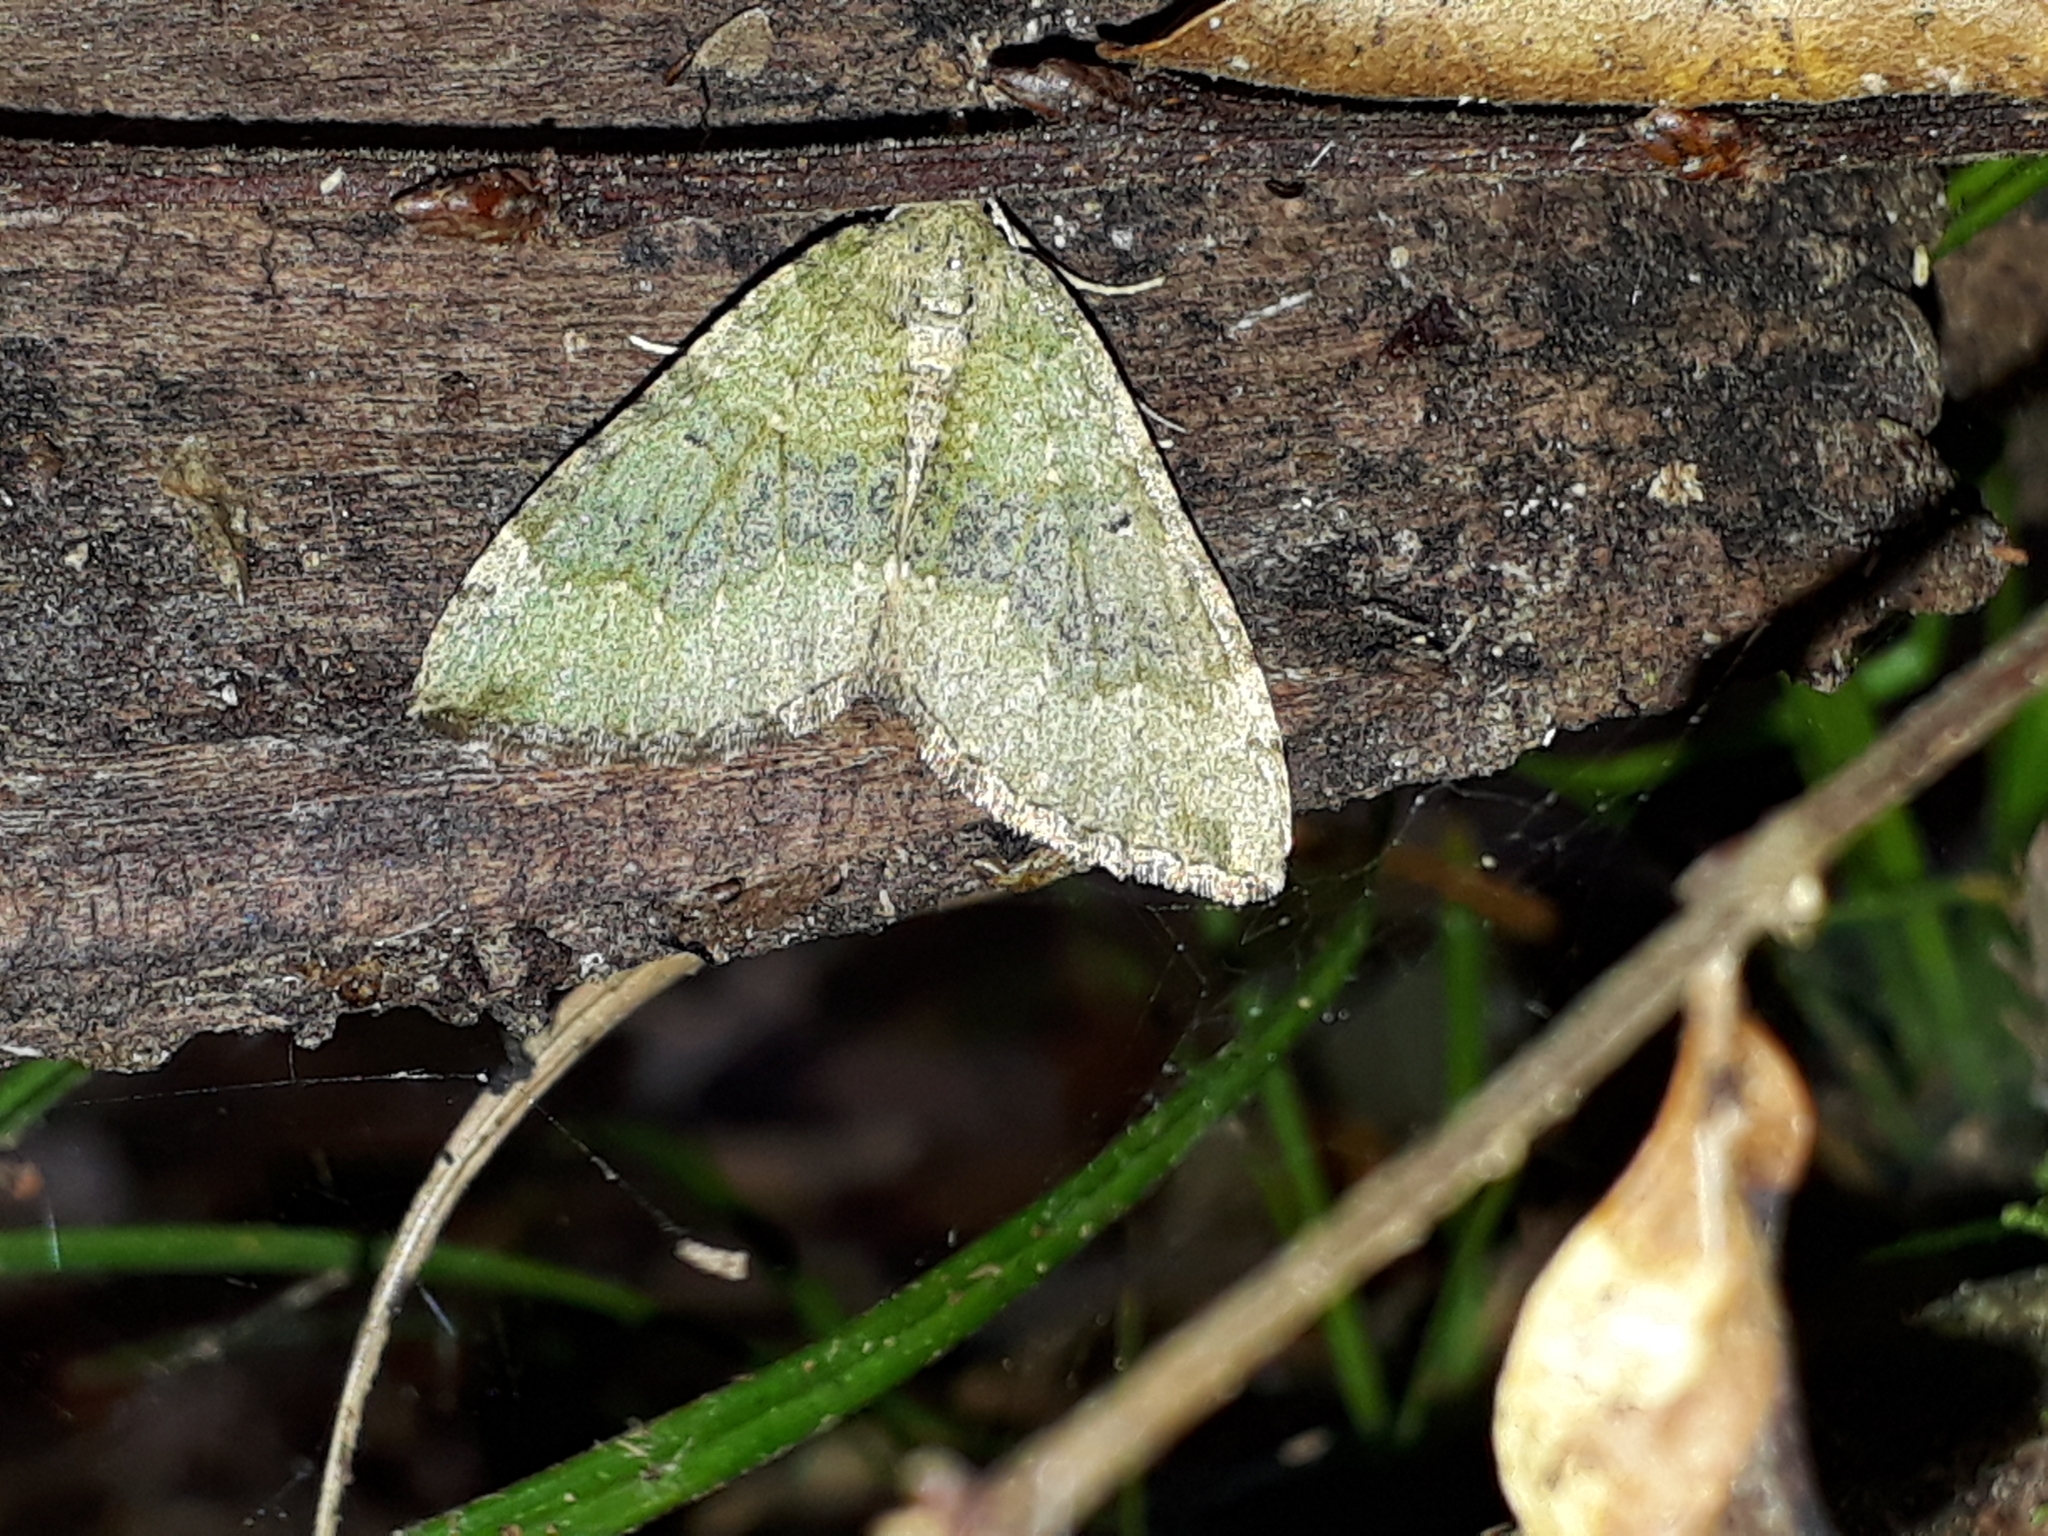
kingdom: Animalia
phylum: Arthropoda
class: Insecta
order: Lepidoptera
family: Geometridae
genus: Epyaxa
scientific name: Epyaxa rosearia
